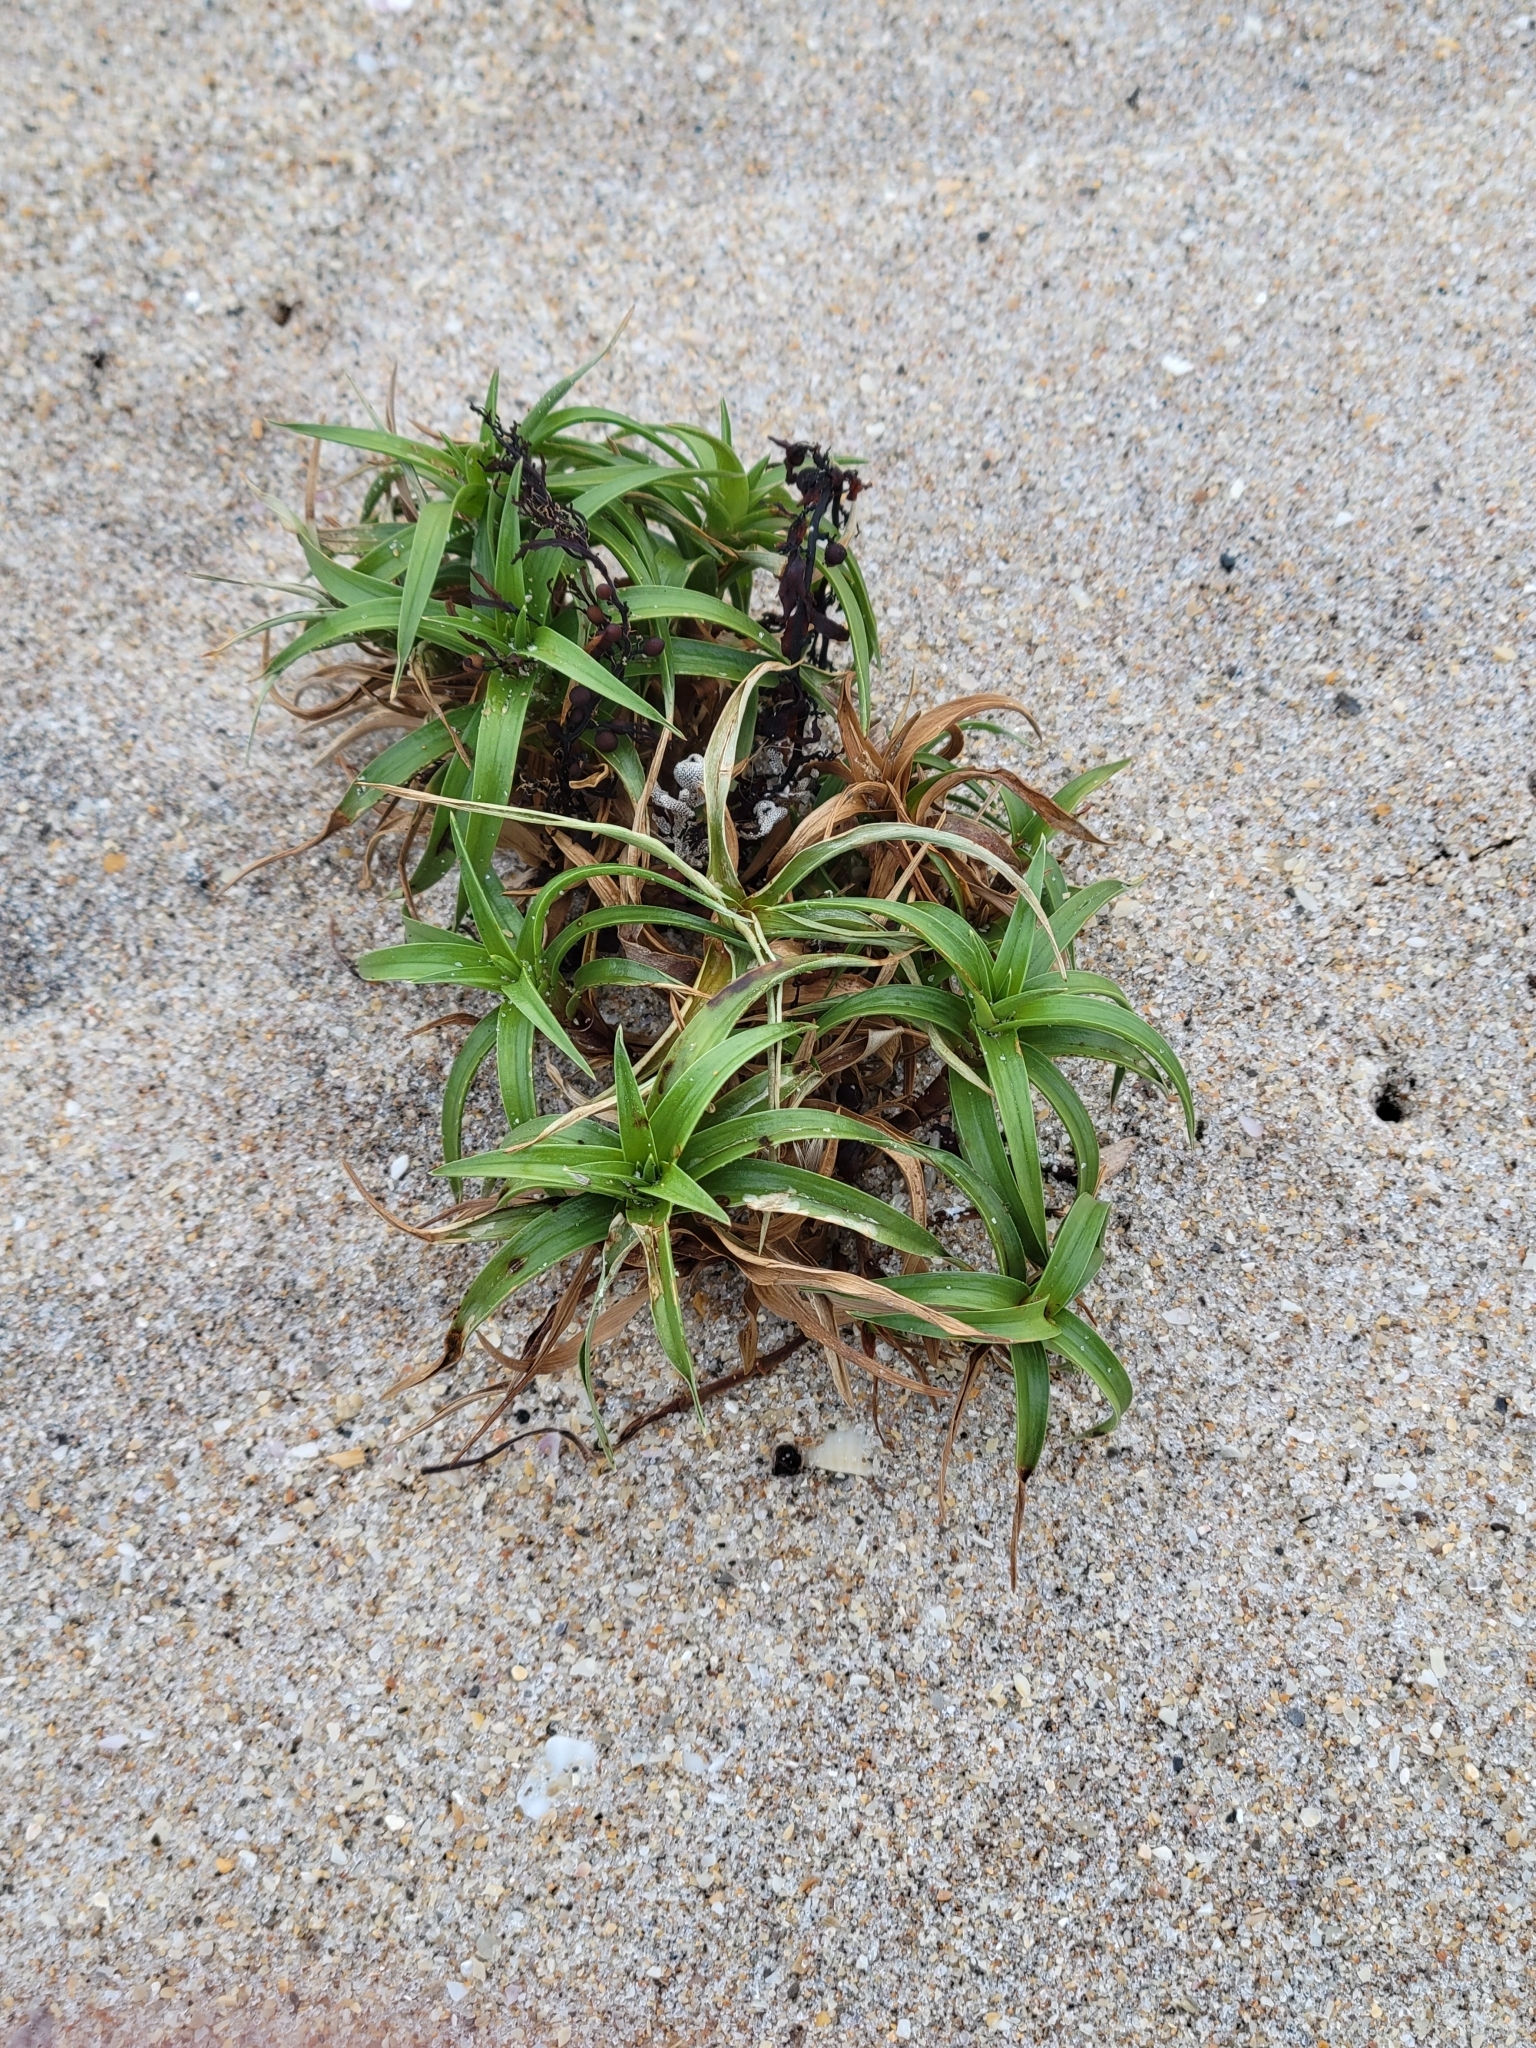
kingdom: Plantae
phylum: Tracheophyta
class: Liliopsida
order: Poales
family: Cyperaceae
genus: Cyperus
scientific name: Cyperus pedunculatus
